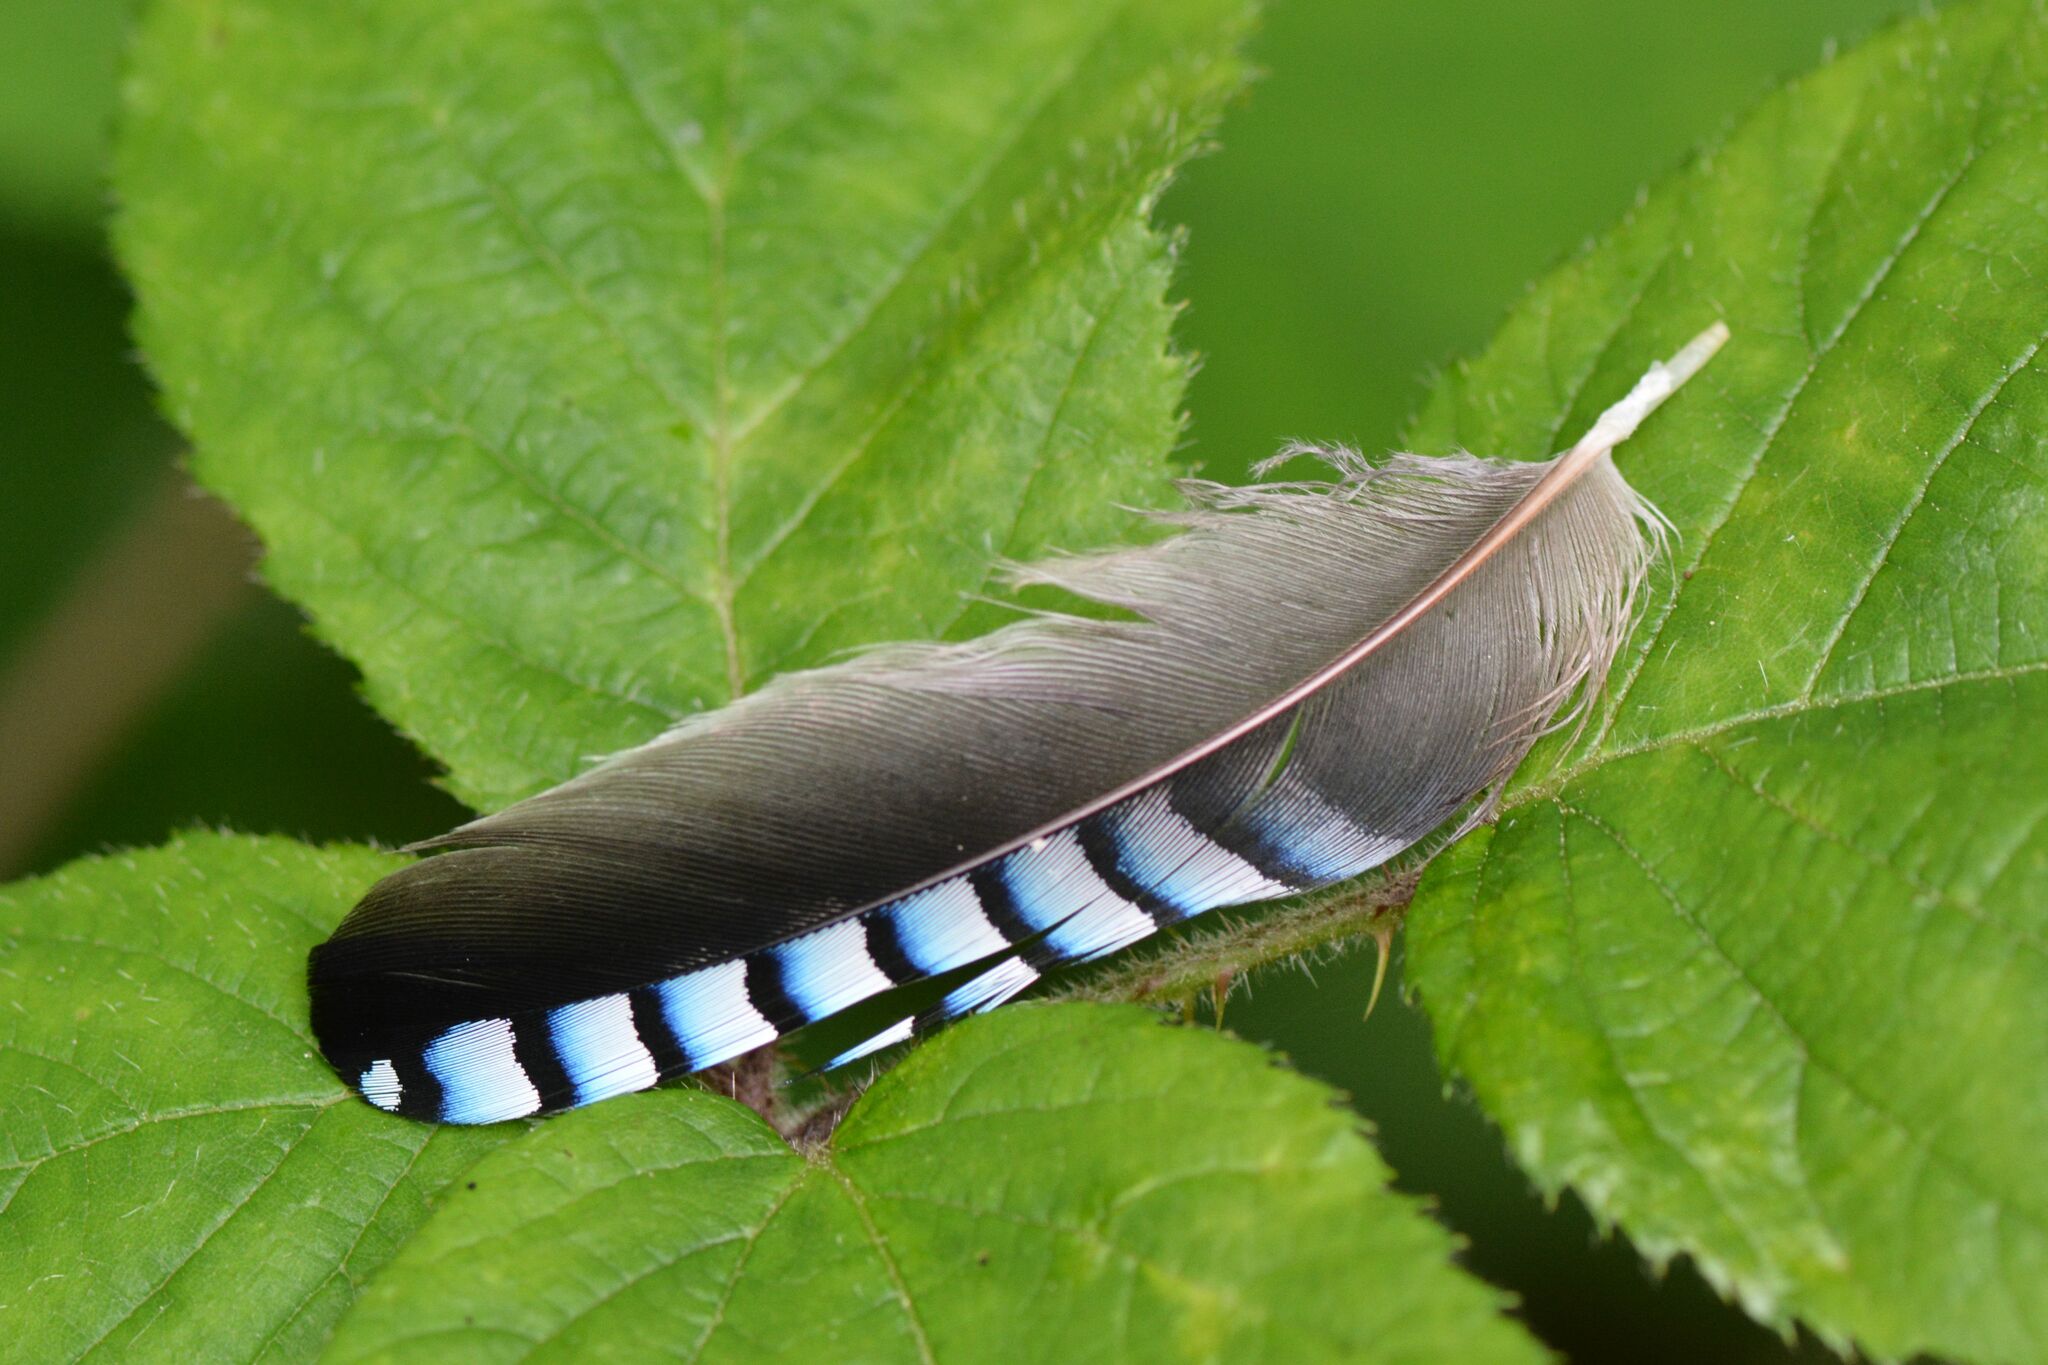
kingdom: Animalia
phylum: Chordata
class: Aves
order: Passeriformes
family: Corvidae
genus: Garrulus
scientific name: Garrulus glandarius
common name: Eurasian jay
